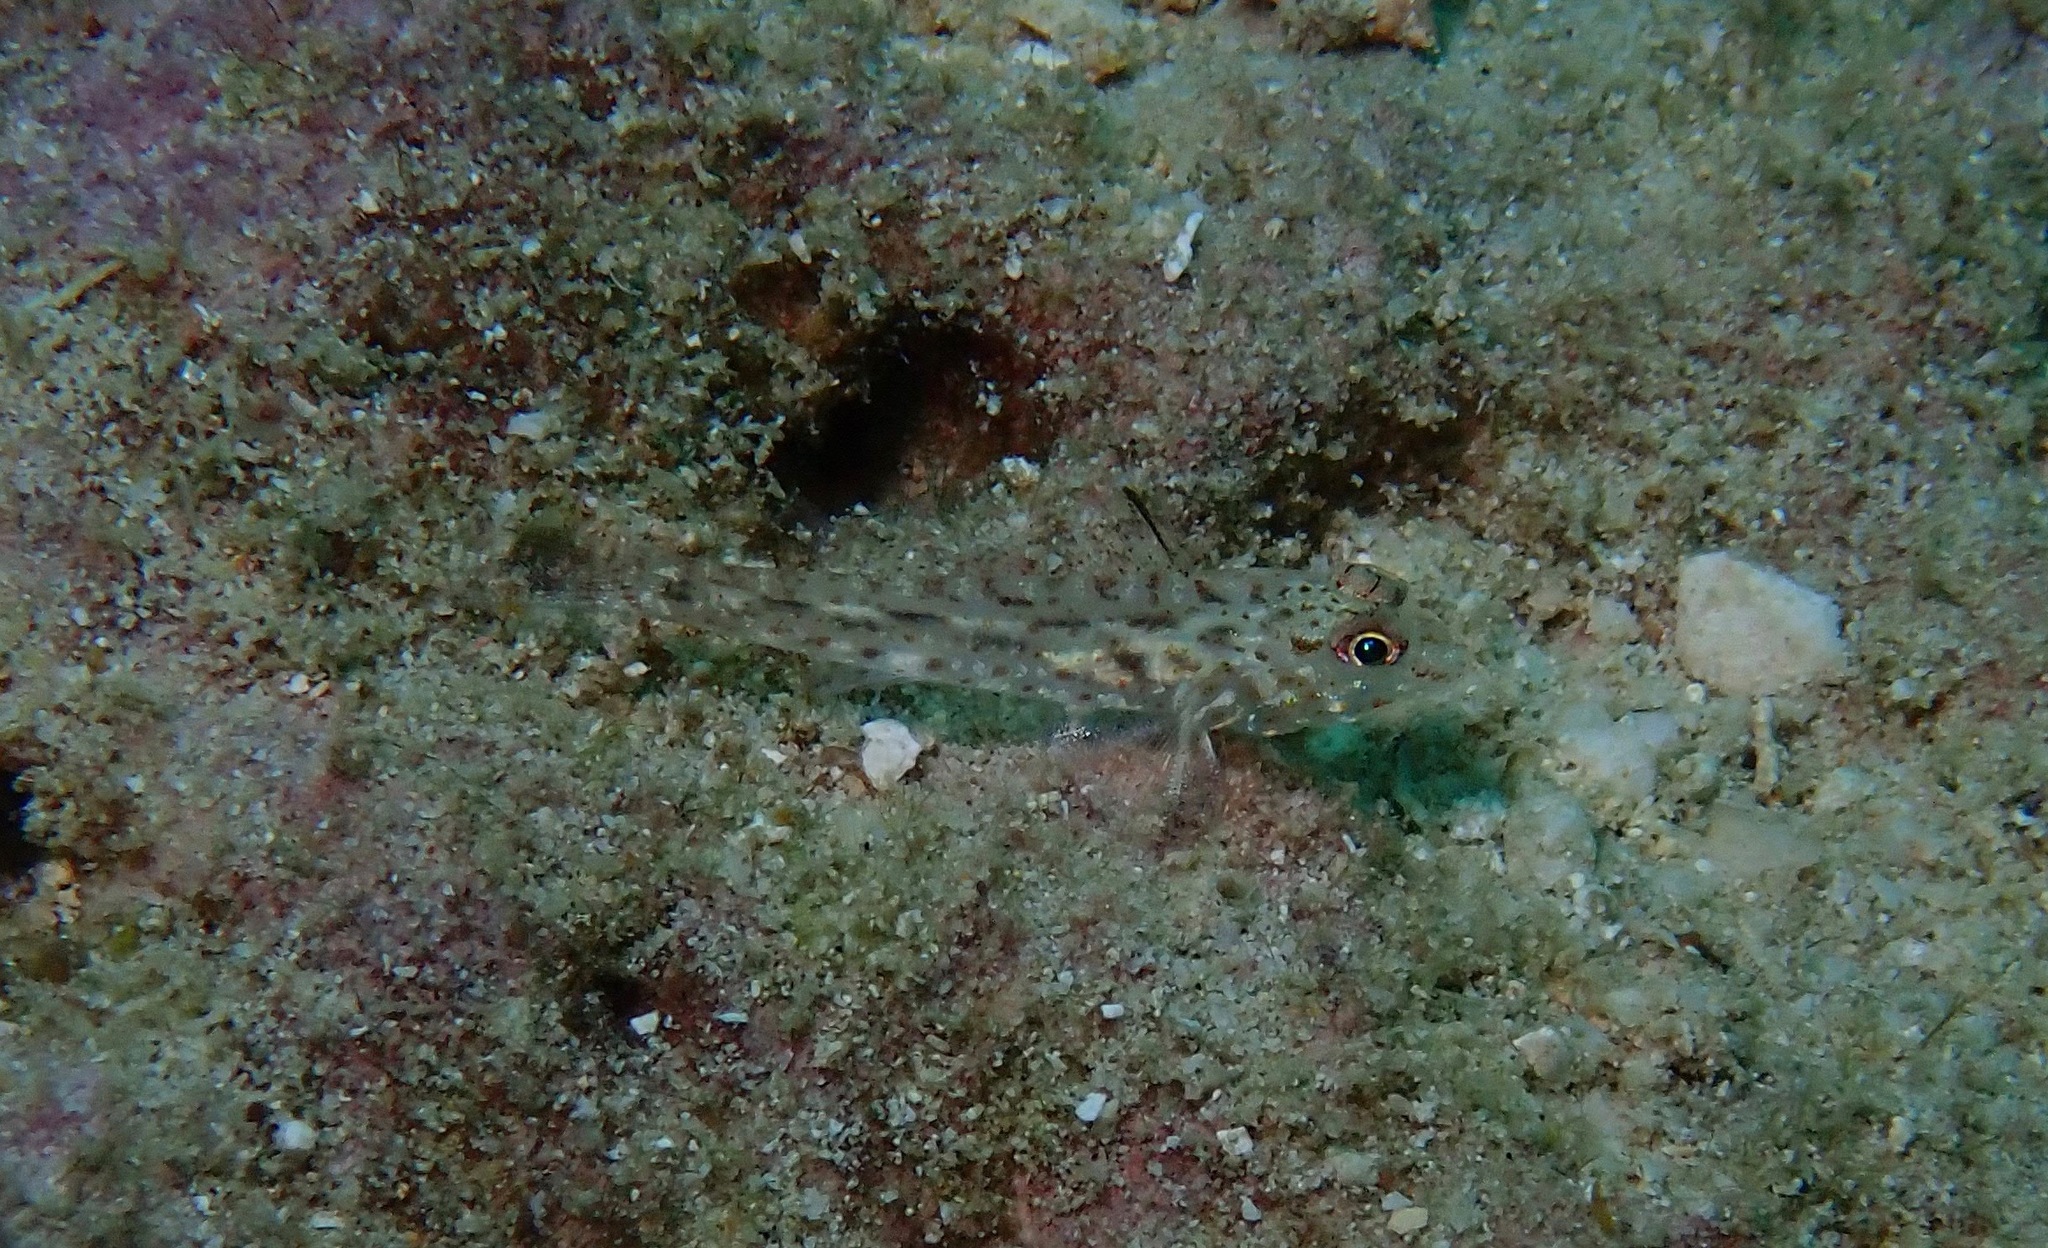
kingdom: Animalia
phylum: Chordata
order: Perciformes
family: Gobiidae
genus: Fusigobius
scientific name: Fusigobius neophytus
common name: Sand goby
